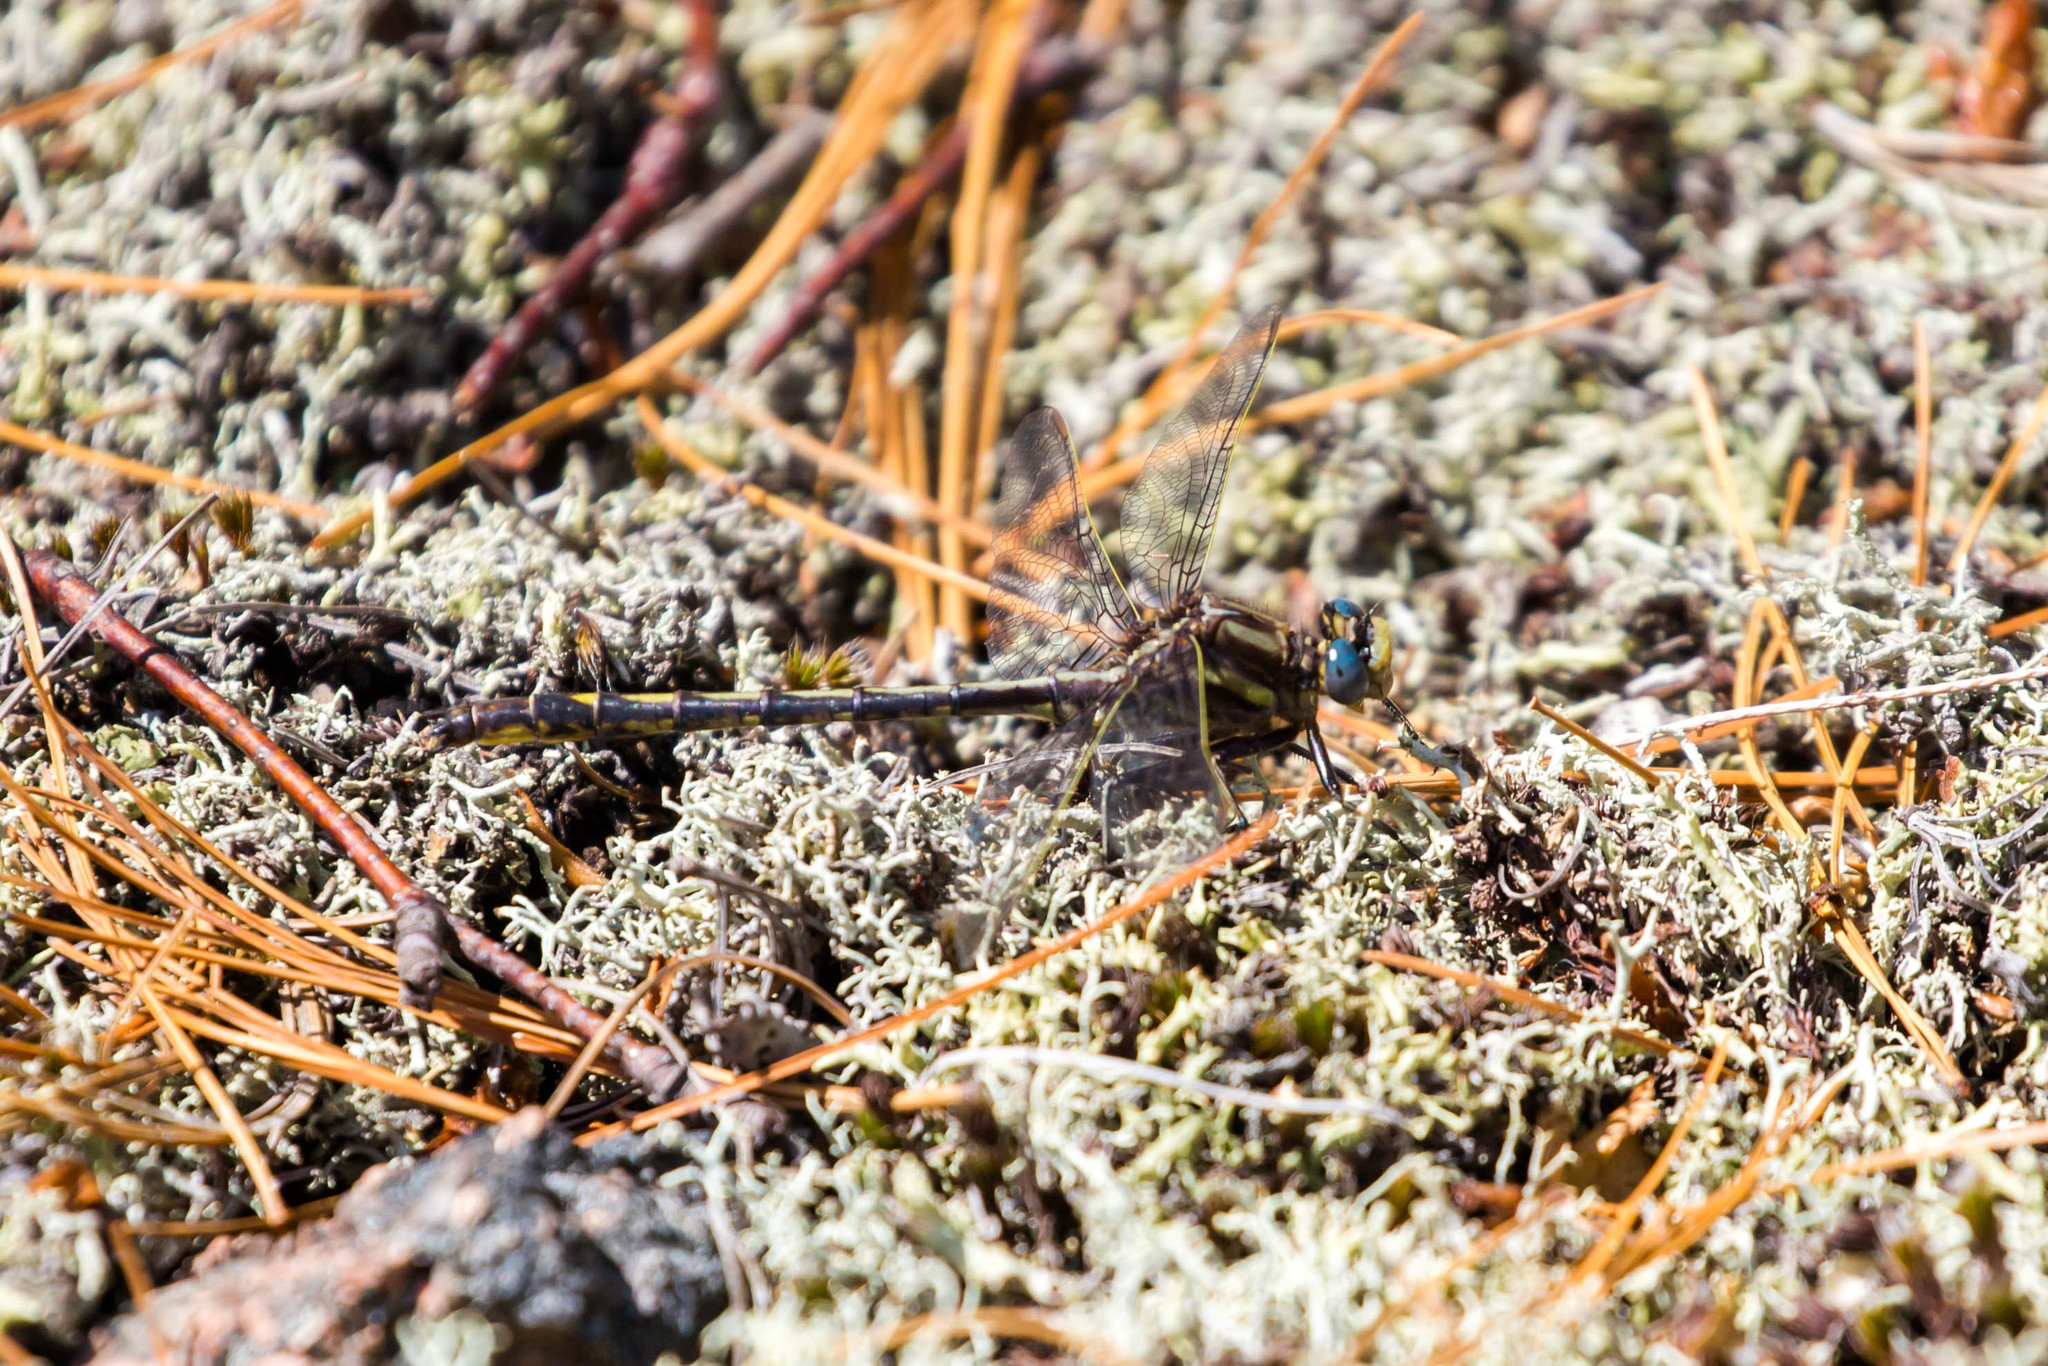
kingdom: Animalia
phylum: Arthropoda
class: Insecta
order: Odonata
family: Gomphidae
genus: Phanogomphus
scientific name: Phanogomphus spicatus
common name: Dusky clubtail
